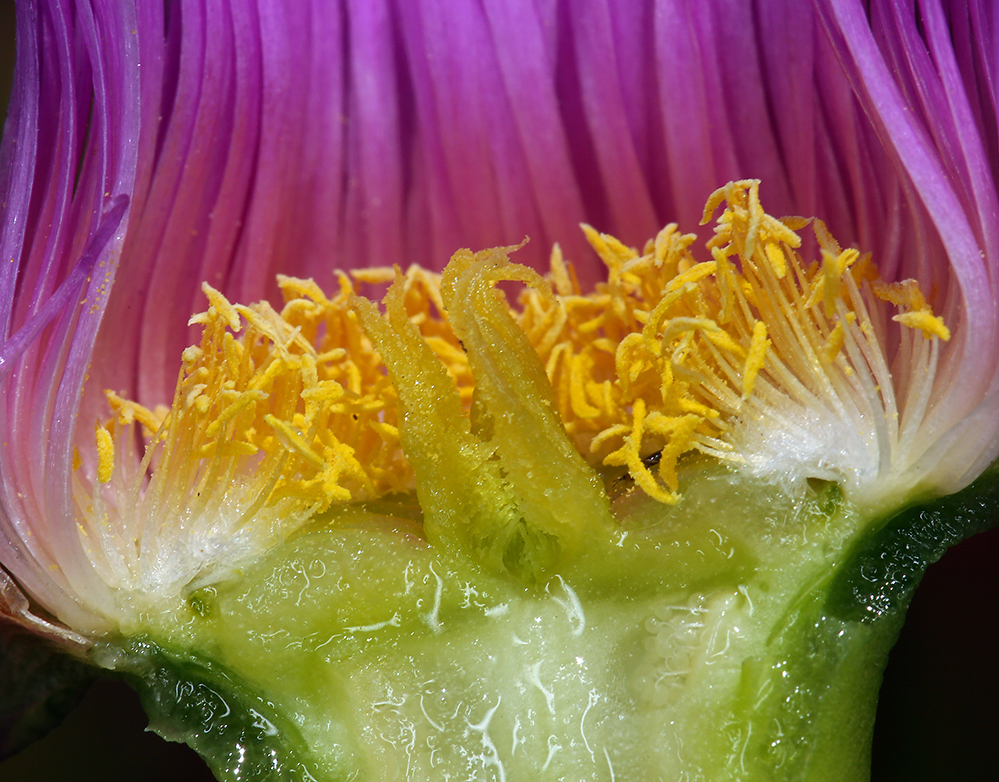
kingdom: Plantae
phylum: Tracheophyta
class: Magnoliopsida
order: Caryophyllales
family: Aizoaceae
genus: Carpobrotus
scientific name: Carpobrotus chilensis
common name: Sea fig
